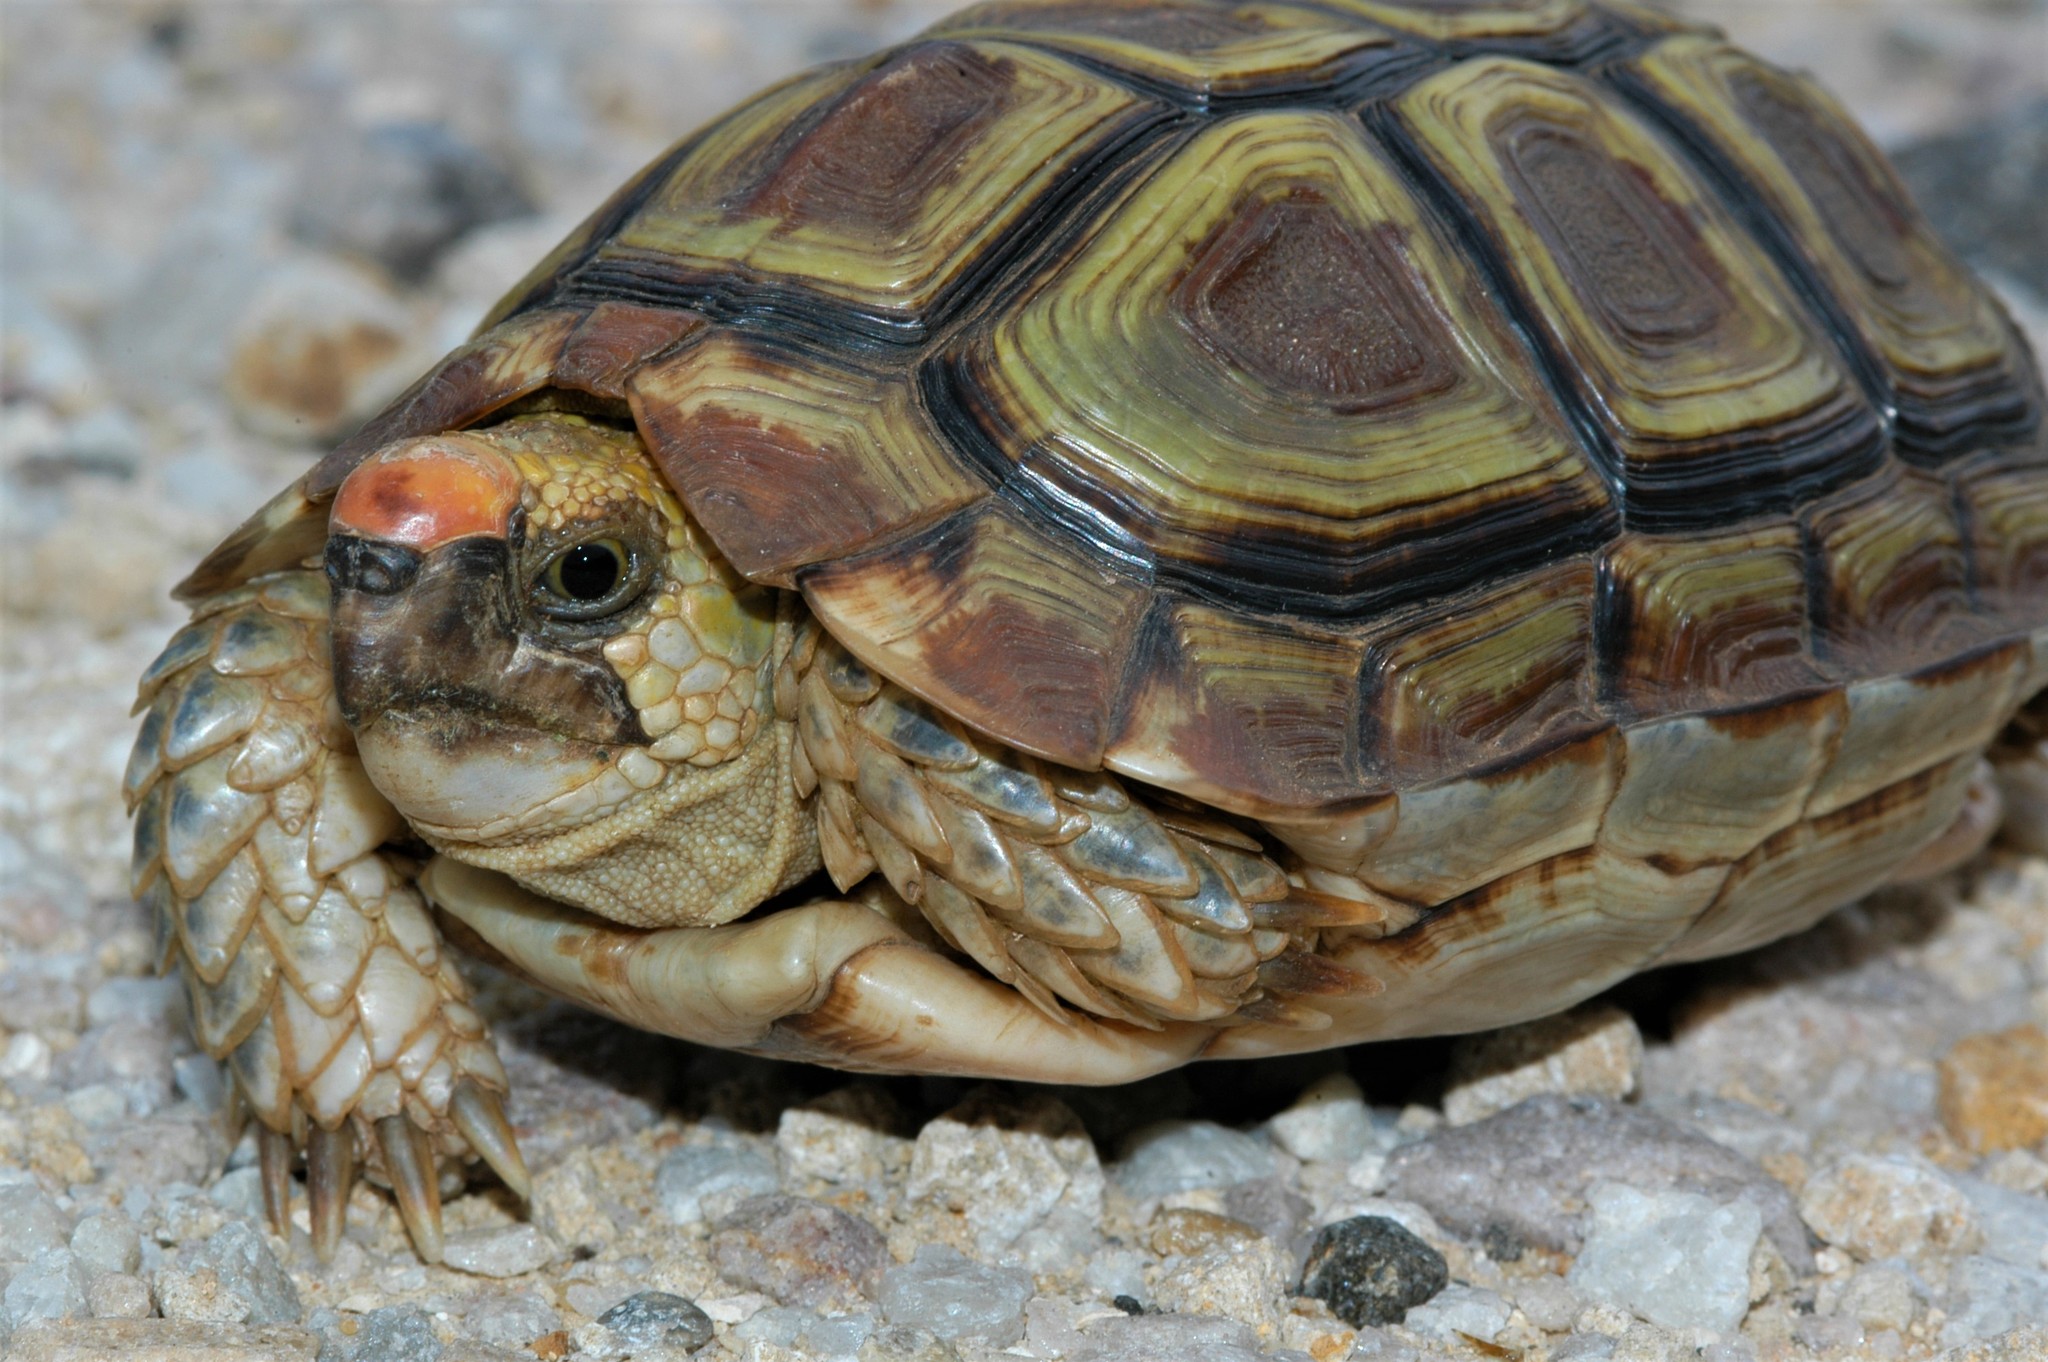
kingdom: Animalia
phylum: Chordata
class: Testudines
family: Testudinidae
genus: Homopus
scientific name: Homopus areolatus
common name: Parrot-beaked tortoise
